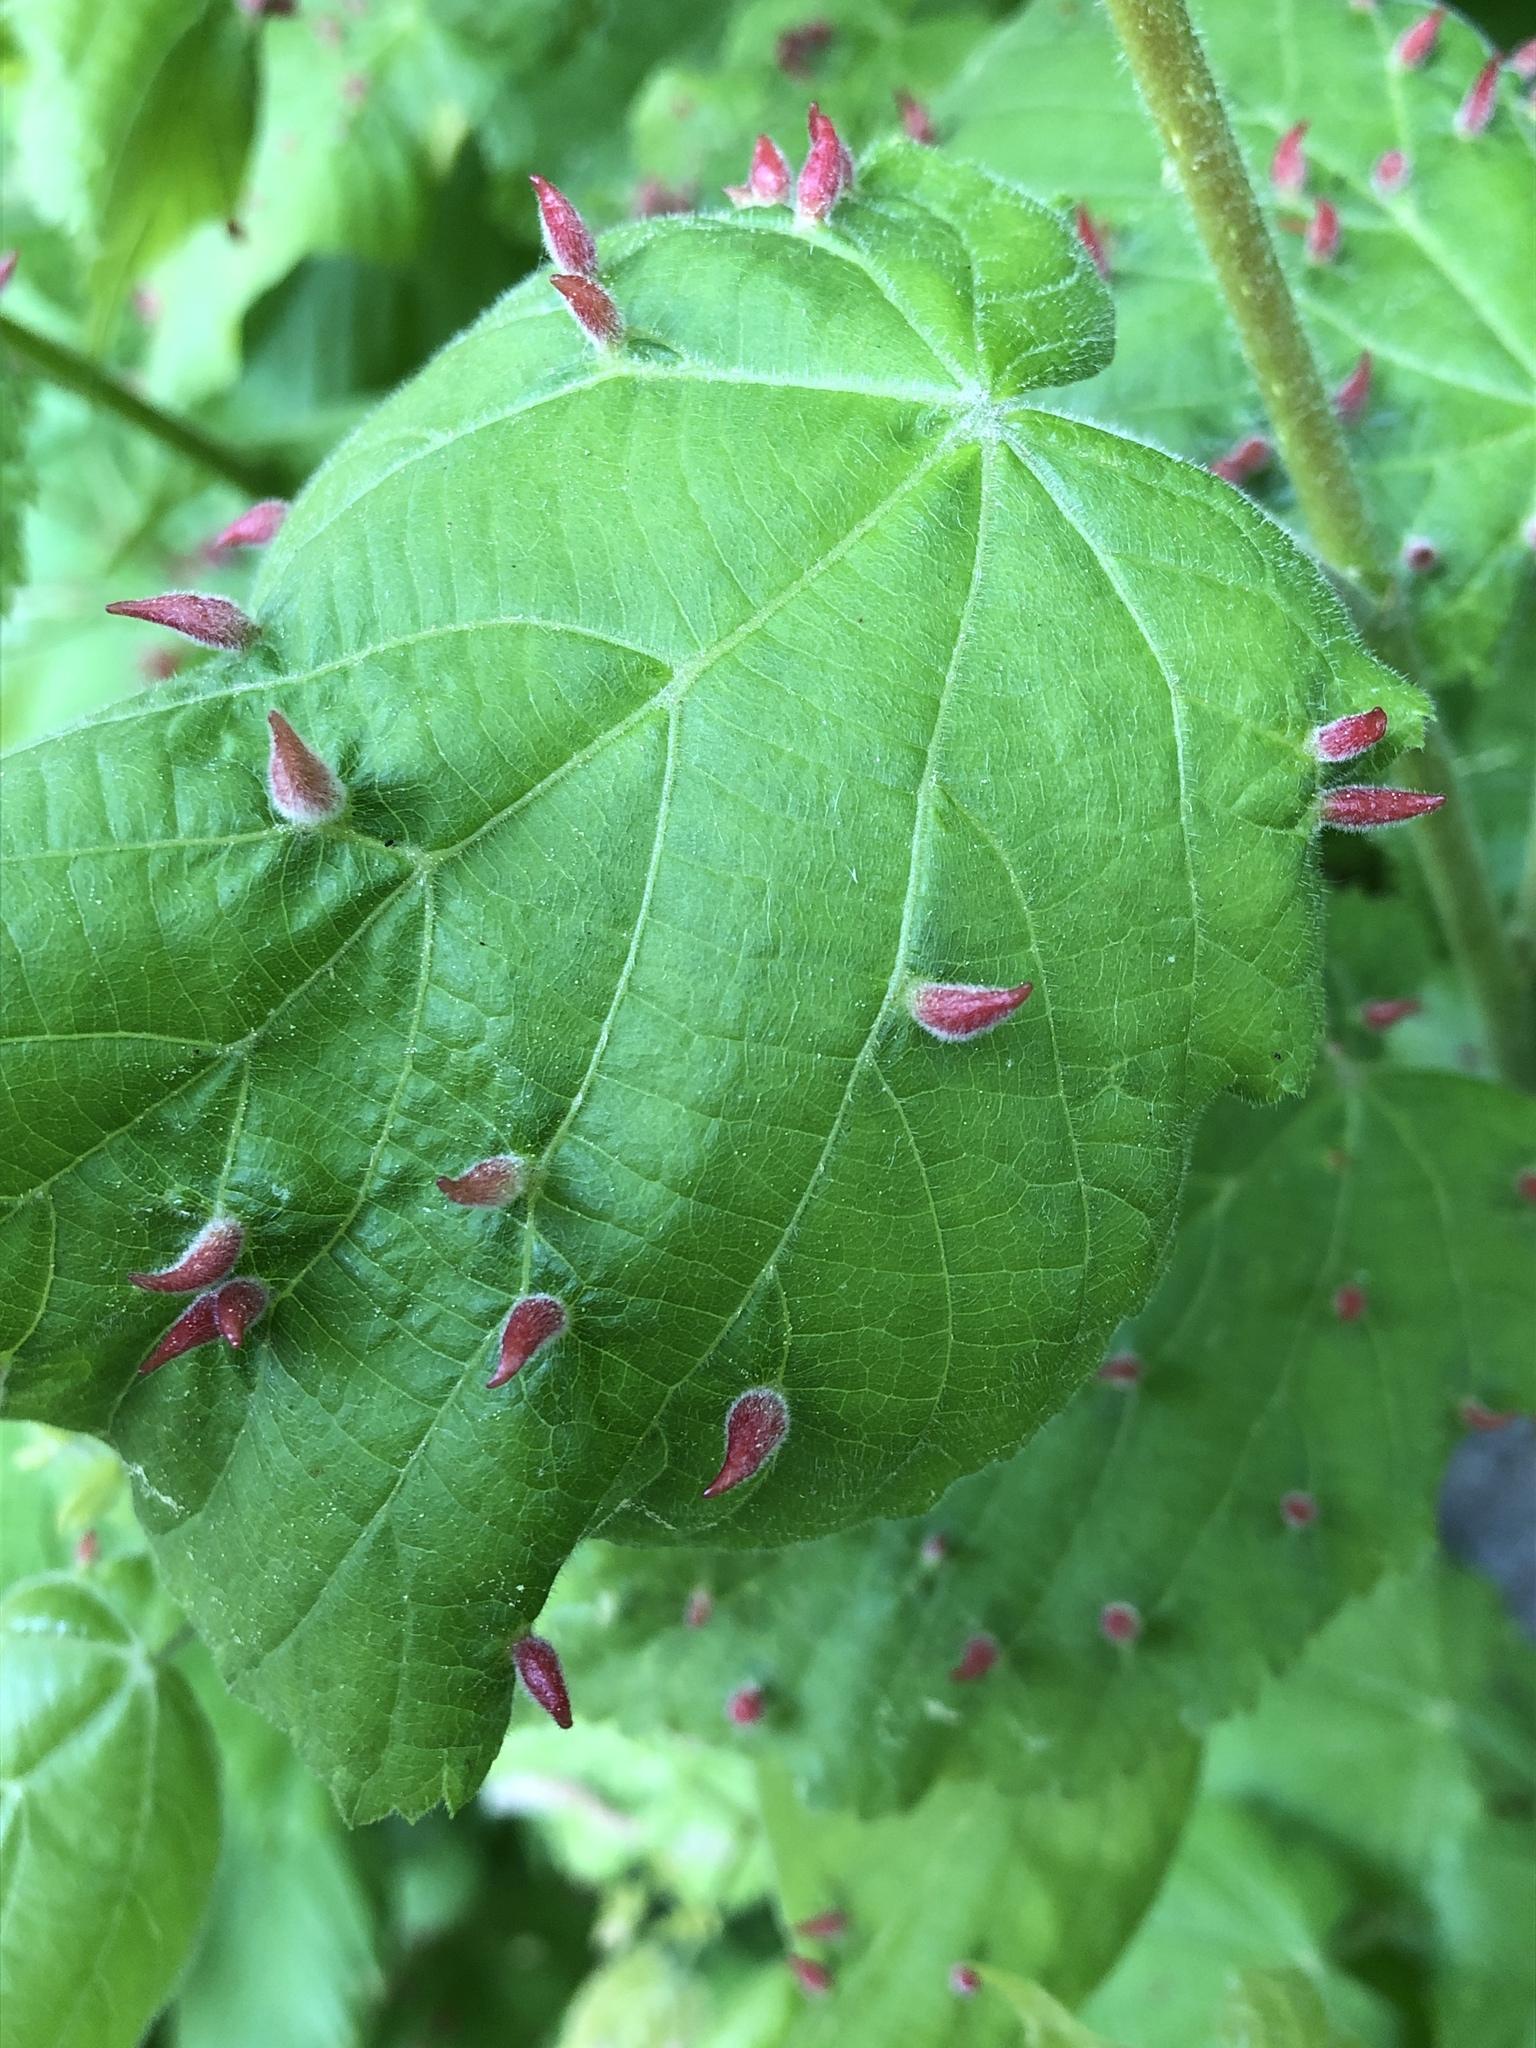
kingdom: Animalia
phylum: Arthropoda
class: Arachnida
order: Trombidiformes
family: Eriophyidae
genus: Eriophyes
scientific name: Eriophyes tiliae
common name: Red nail gall mite
